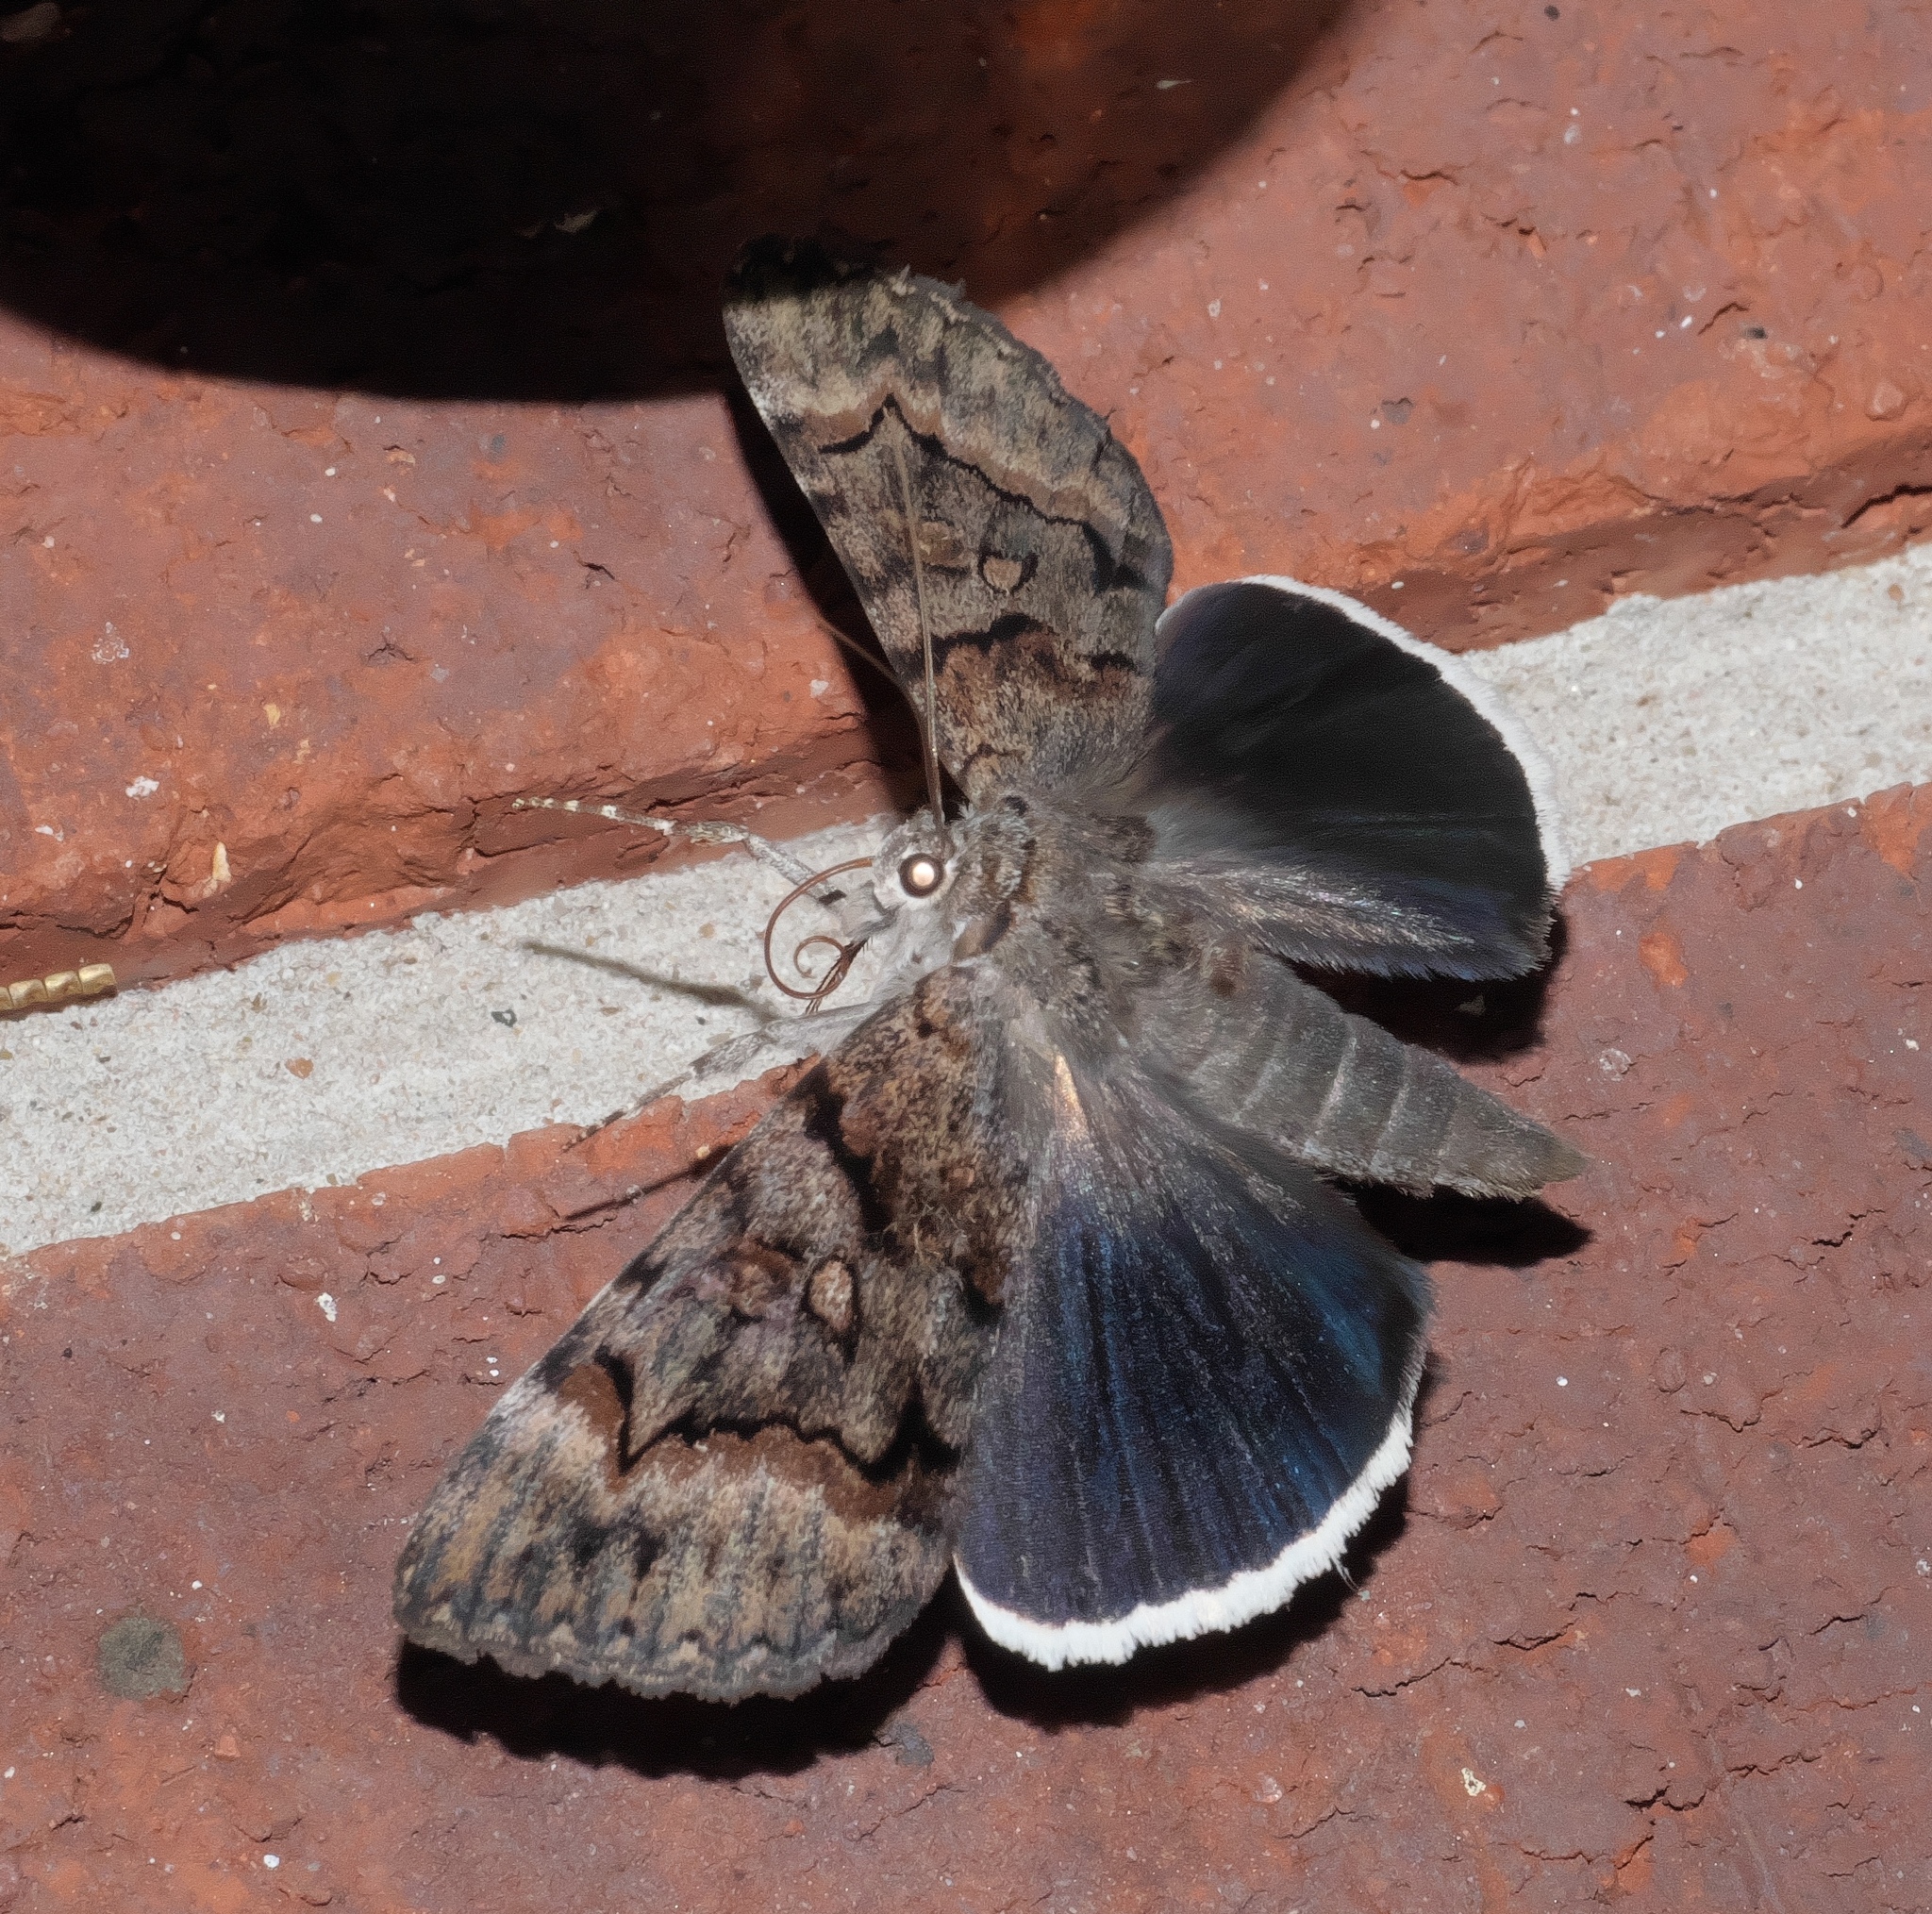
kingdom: Animalia
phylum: Arthropoda
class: Insecta
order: Lepidoptera
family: Erebidae
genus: Catocala
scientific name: Catocala epione
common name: Epione underwing
